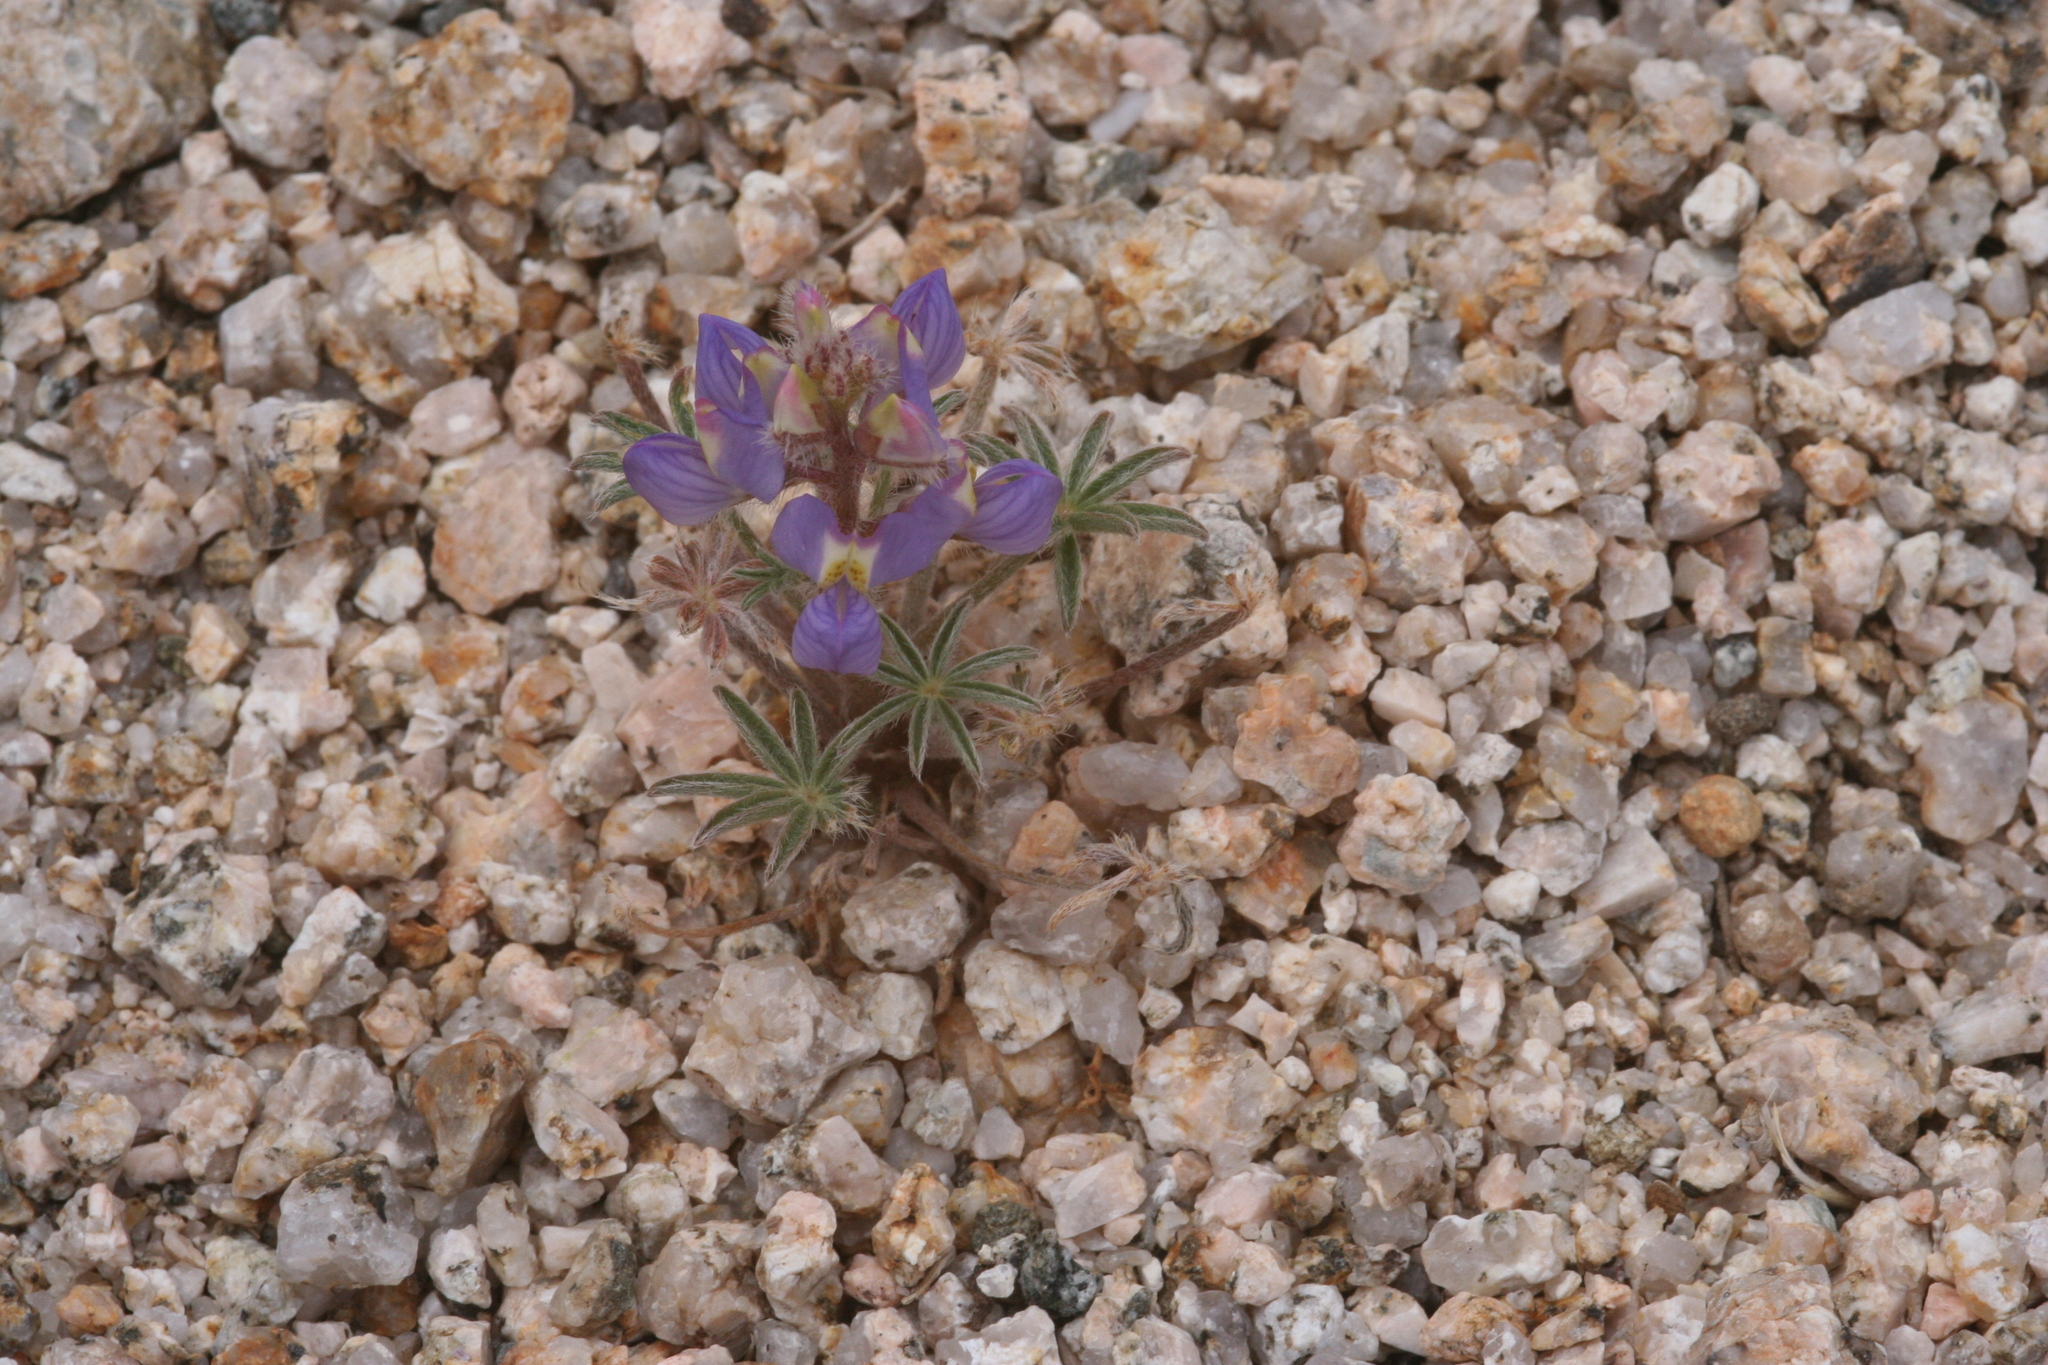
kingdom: Plantae
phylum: Tracheophyta
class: Magnoliopsida
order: Fabales
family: Fabaceae
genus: Lupinus
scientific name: Lupinus sparsiflorus
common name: Coulter's lupine
